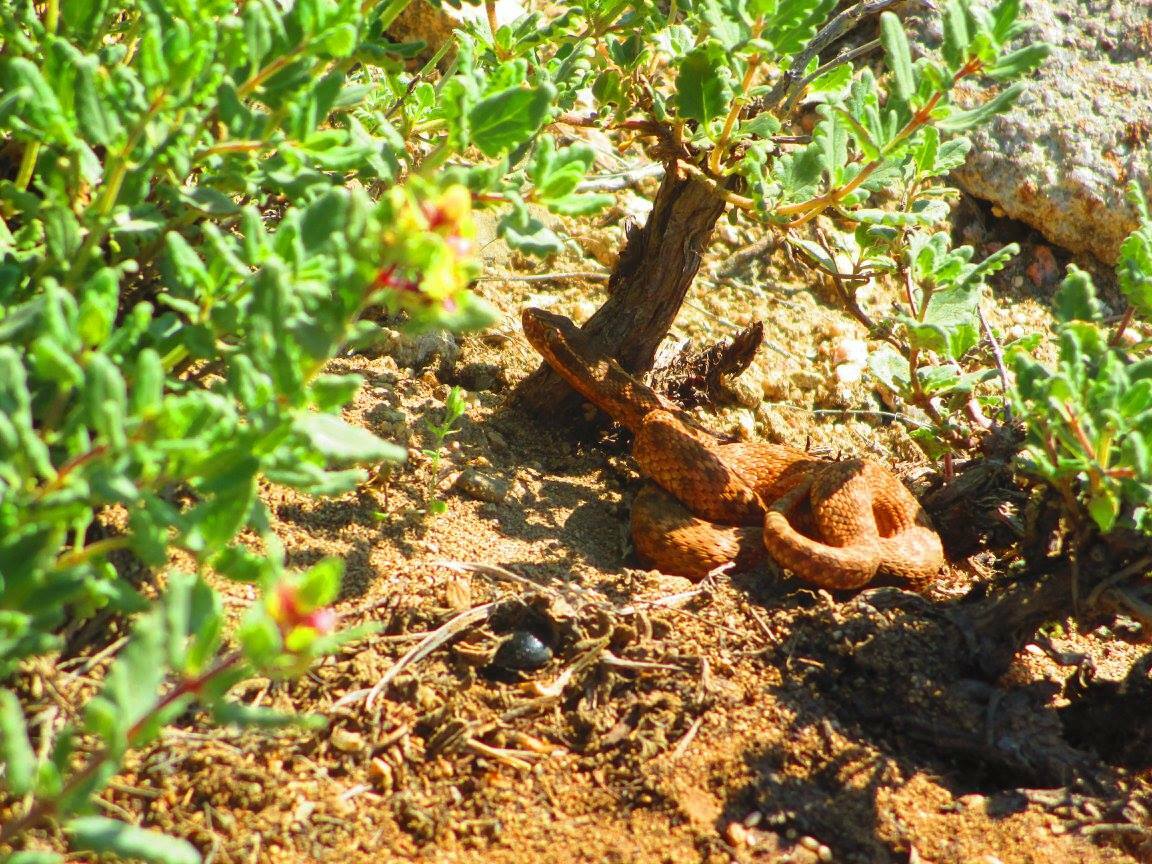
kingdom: Animalia
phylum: Chordata
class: Squamata
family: Viperidae
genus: Gloydius
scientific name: Gloydius halys
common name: Halys pit viper
